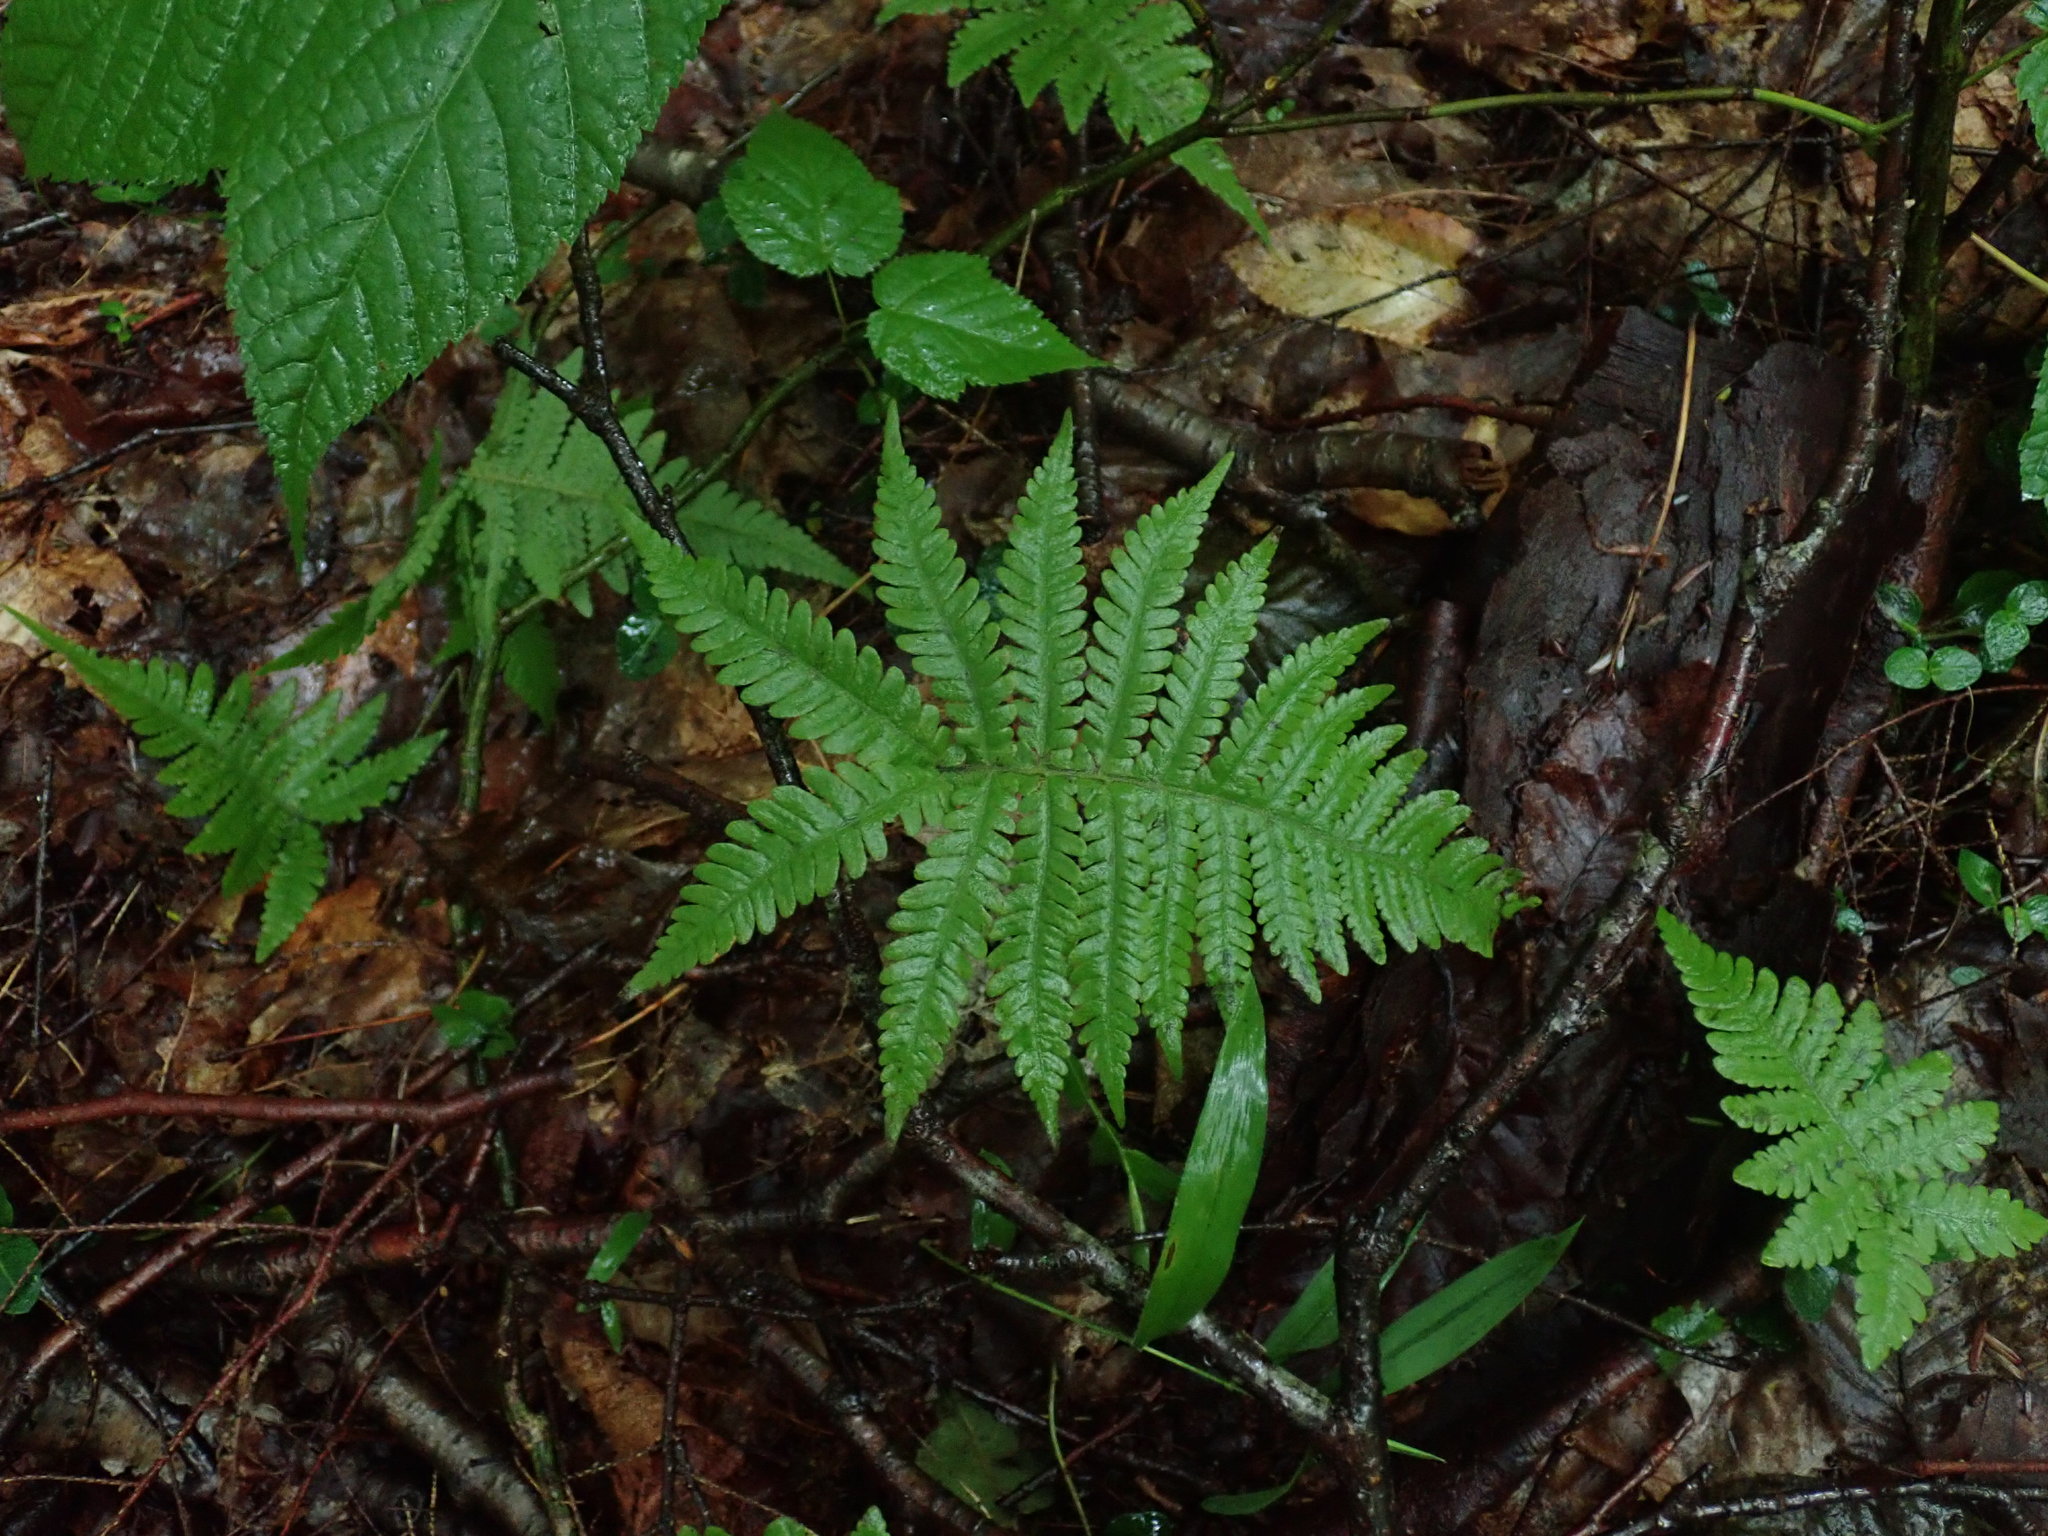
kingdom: Plantae
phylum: Tracheophyta
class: Polypodiopsida
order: Polypodiales
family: Thelypteridaceae
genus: Phegopteris
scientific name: Phegopteris connectilis
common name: Beech fern
